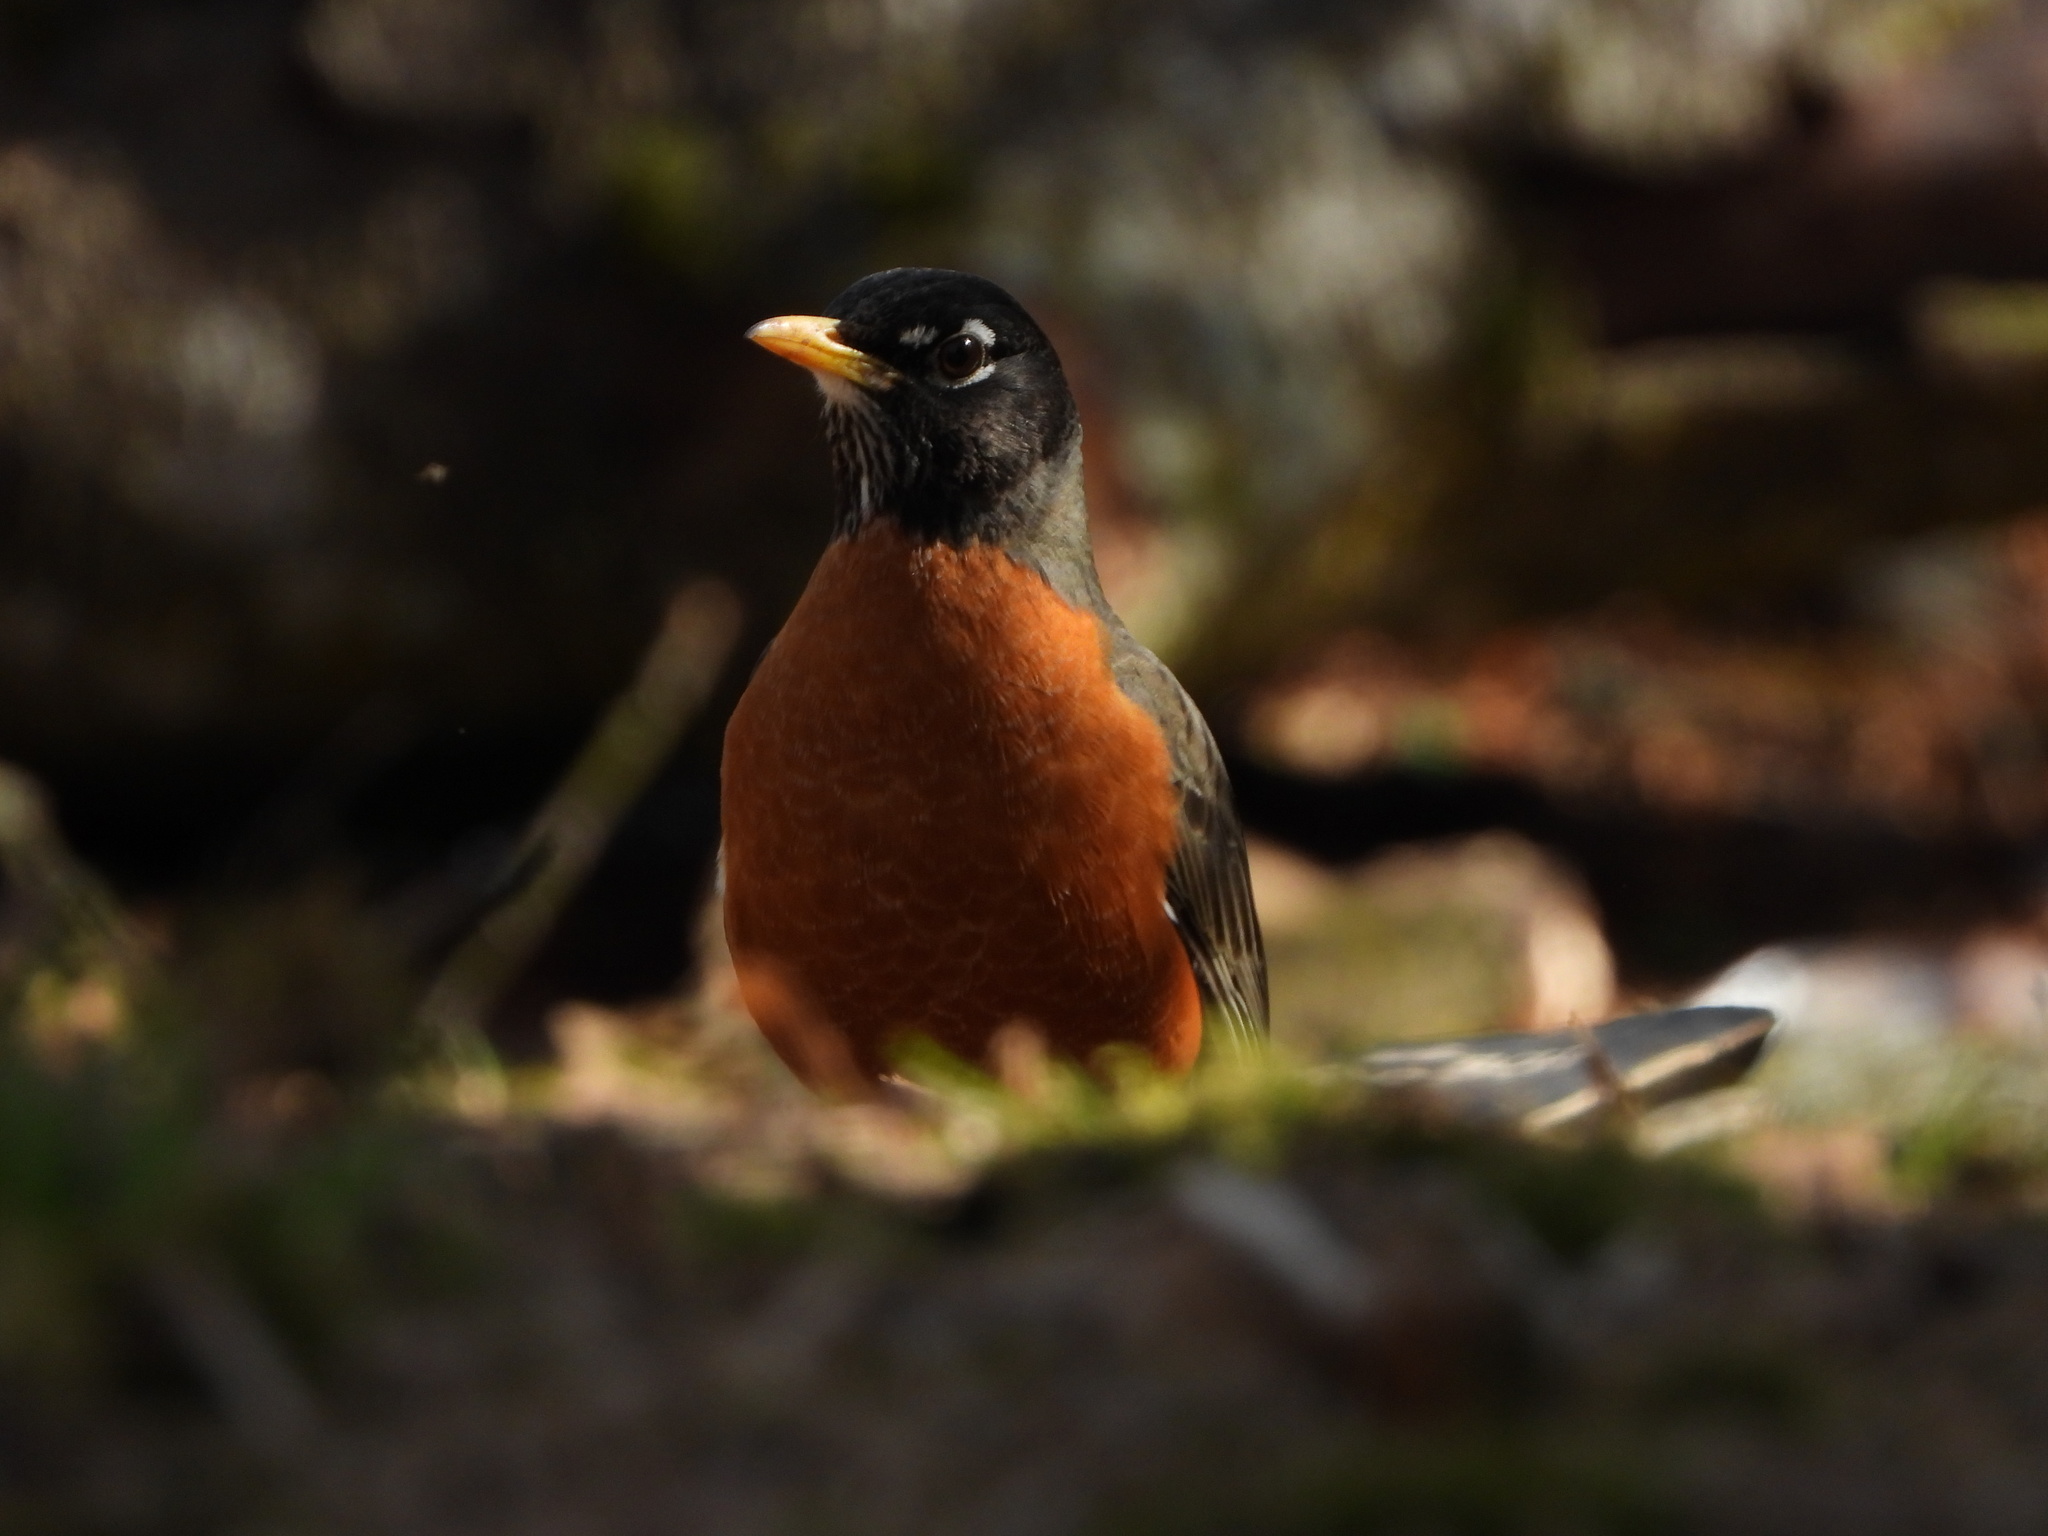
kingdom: Animalia
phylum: Chordata
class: Aves
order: Passeriformes
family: Turdidae
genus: Turdus
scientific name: Turdus migratorius
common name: American robin
